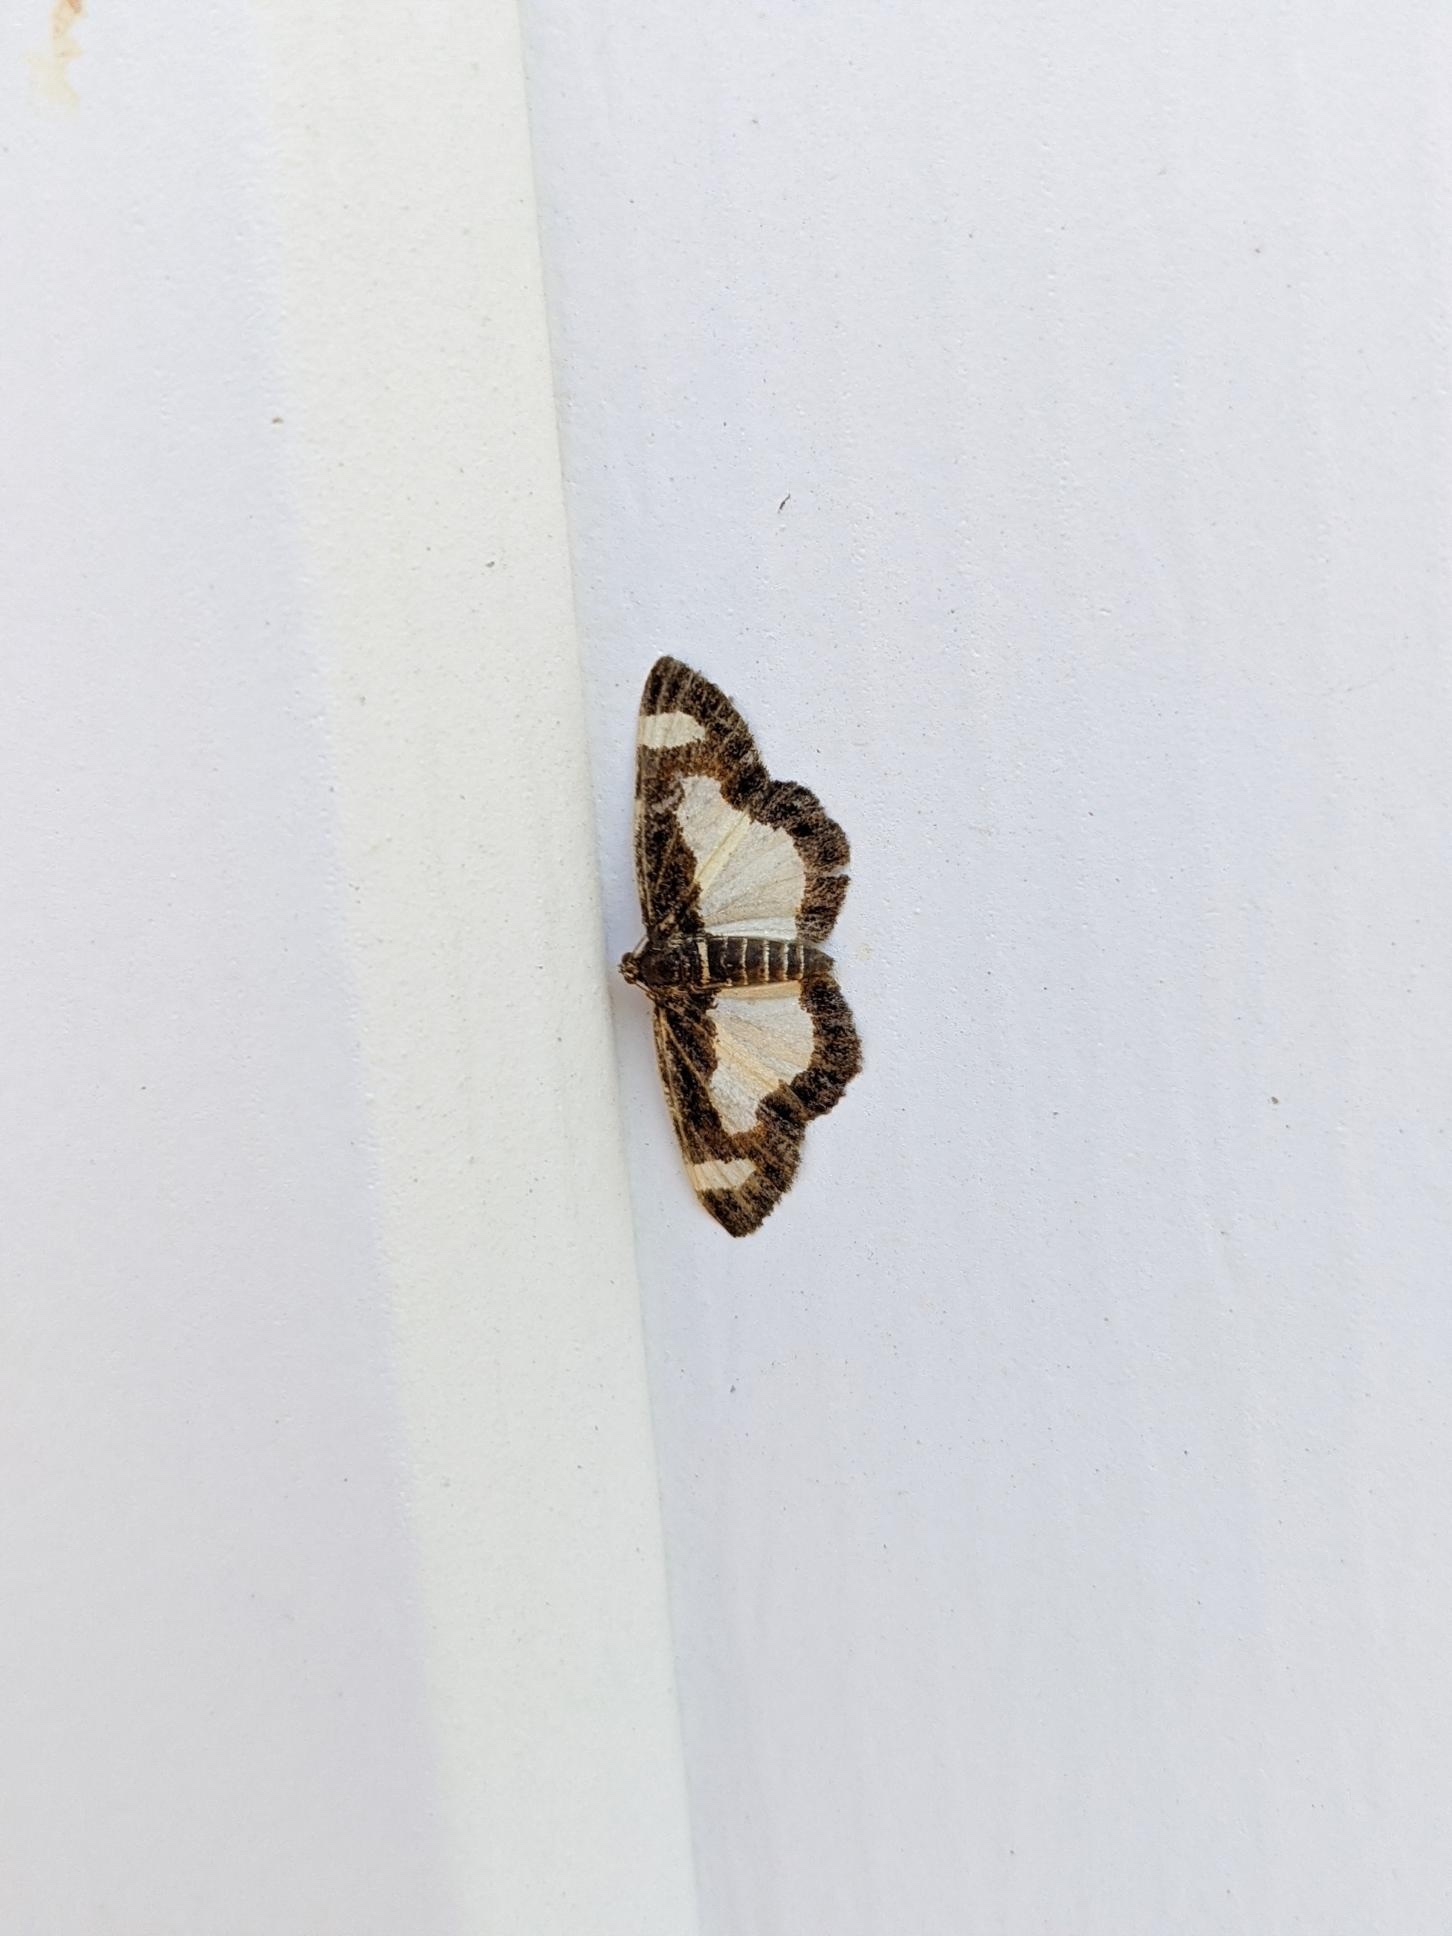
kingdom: Animalia
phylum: Arthropoda
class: Insecta
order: Lepidoptera
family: Geometridae
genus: Heliomata
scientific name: Heliomata cycladata
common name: Common spring moth
